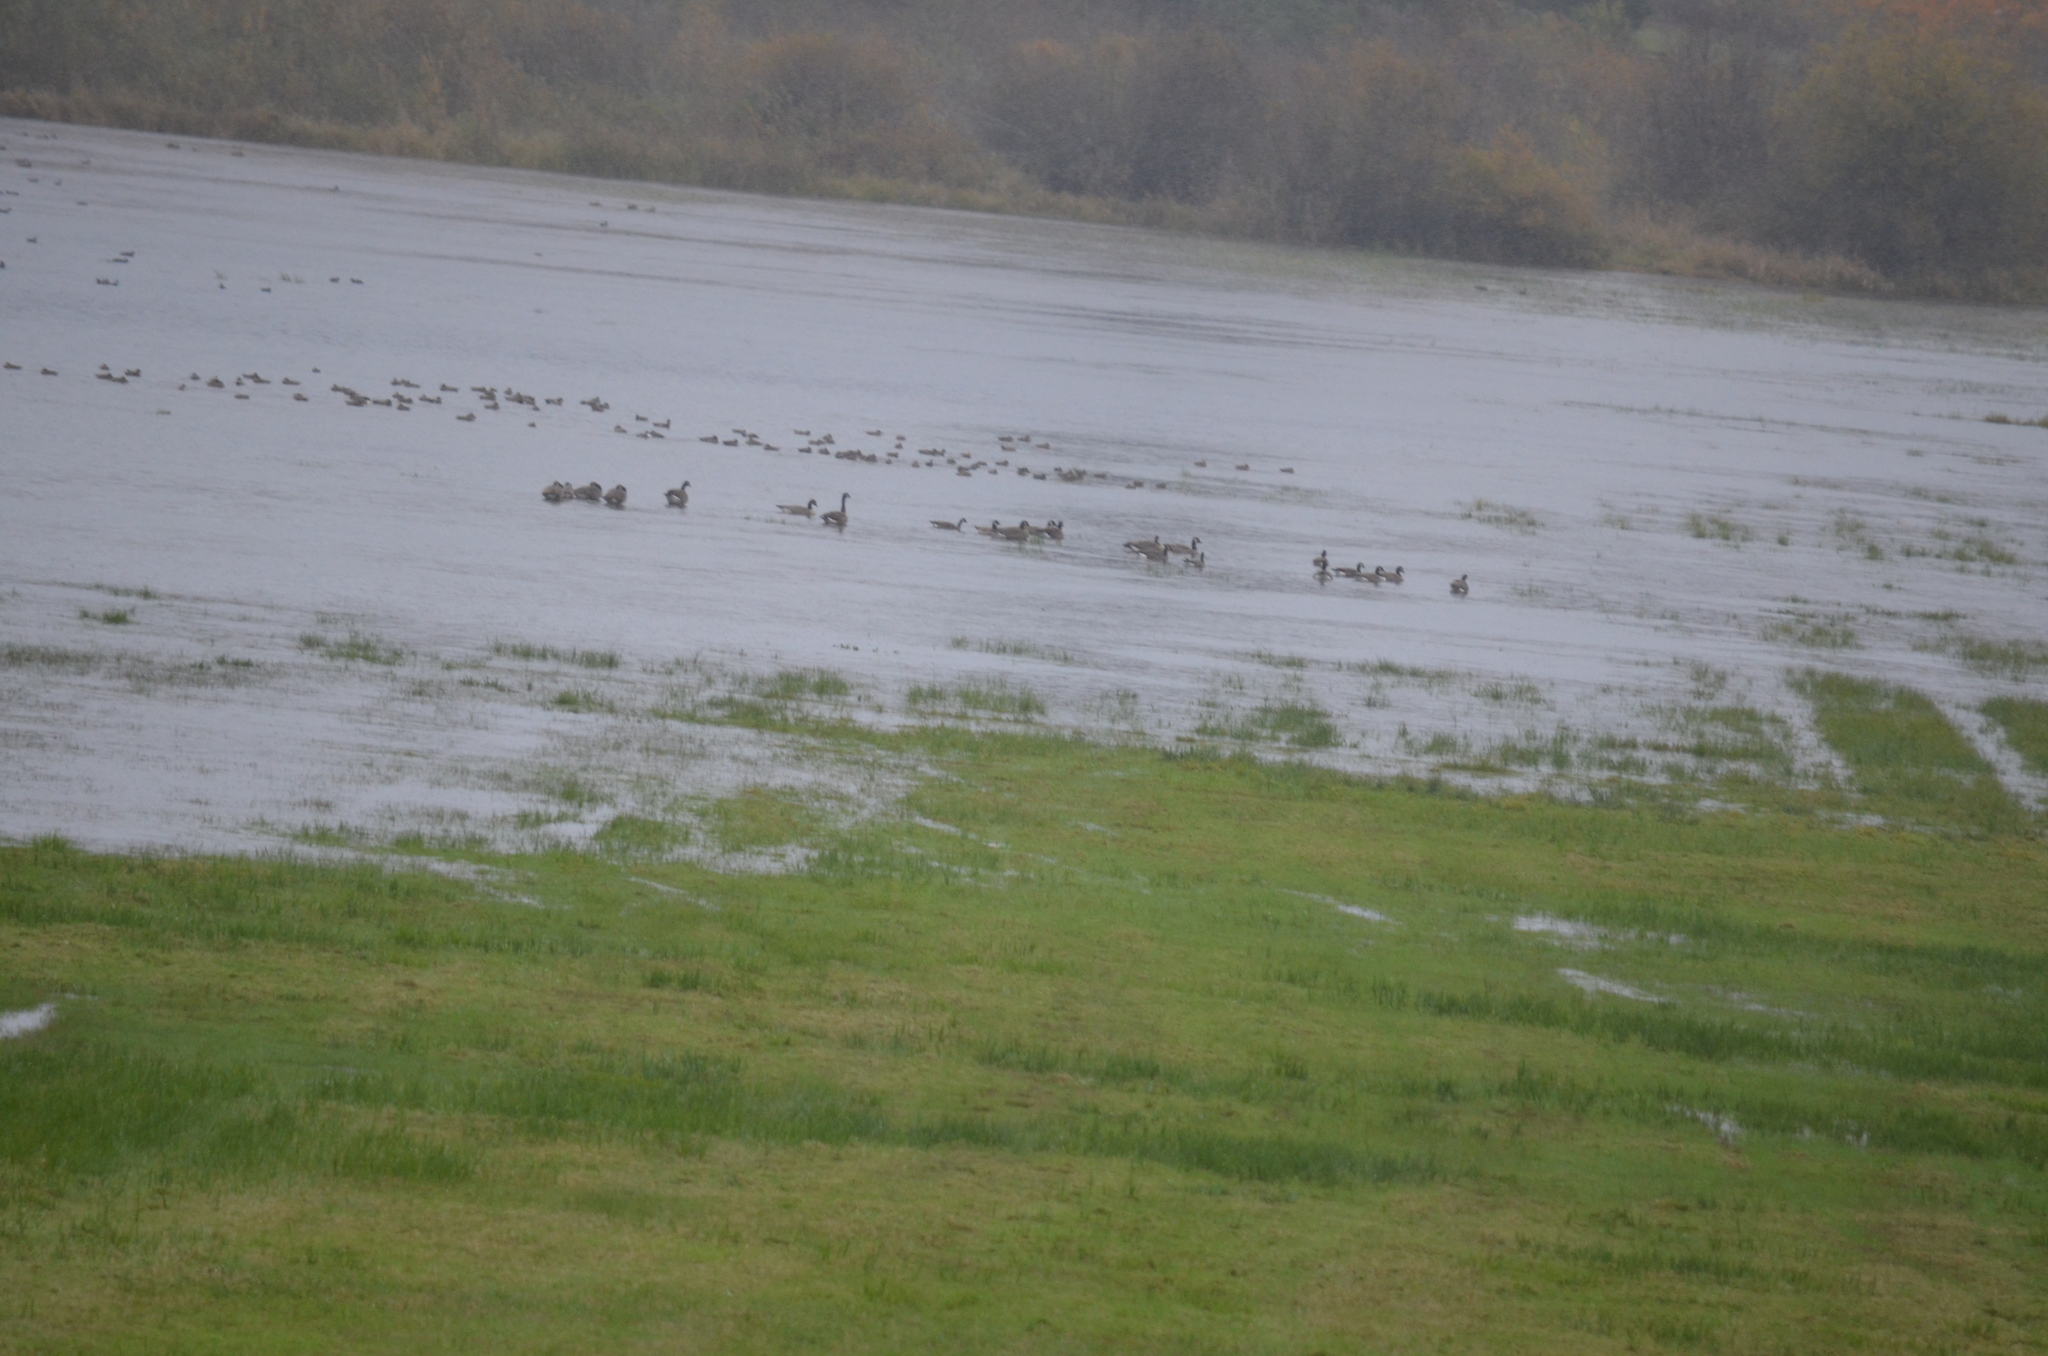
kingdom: Animalia
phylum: Chordata
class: Aves
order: Anseriformes
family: Anatidae
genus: Branta
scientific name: Branta canadensis
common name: Canada goose
